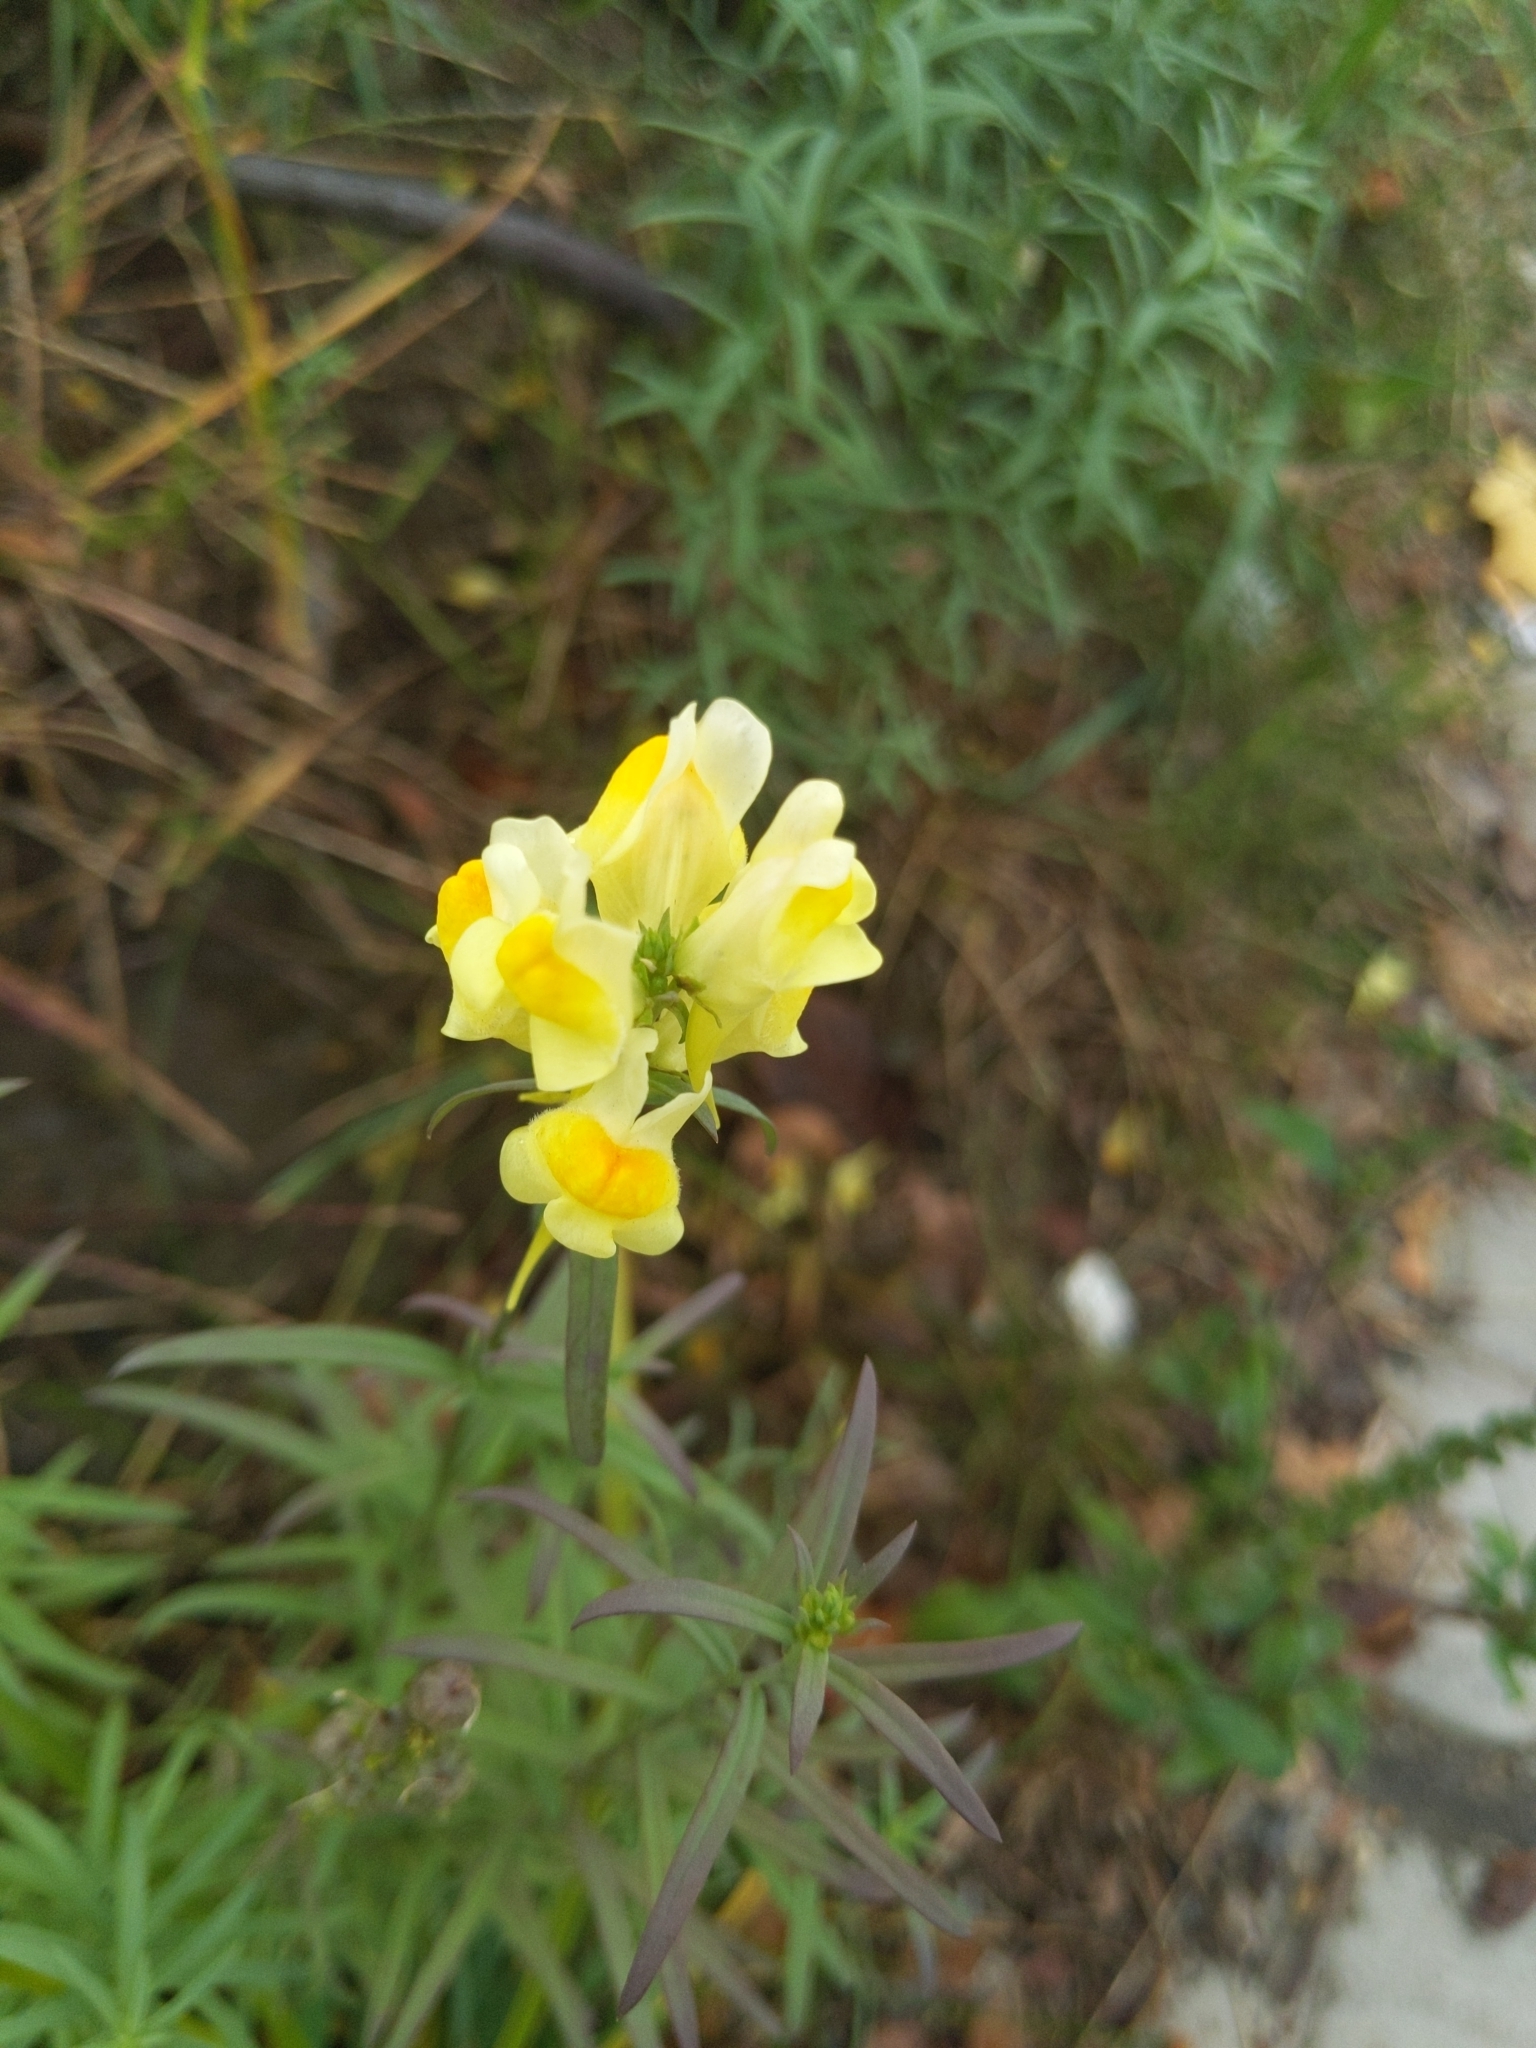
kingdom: Plantae
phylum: Tracheophyta
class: Magnoliopsida
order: Lamiales
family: Plantaginaceae
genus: Linaria
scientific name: Linaria vulgaris
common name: Butter and eggs
